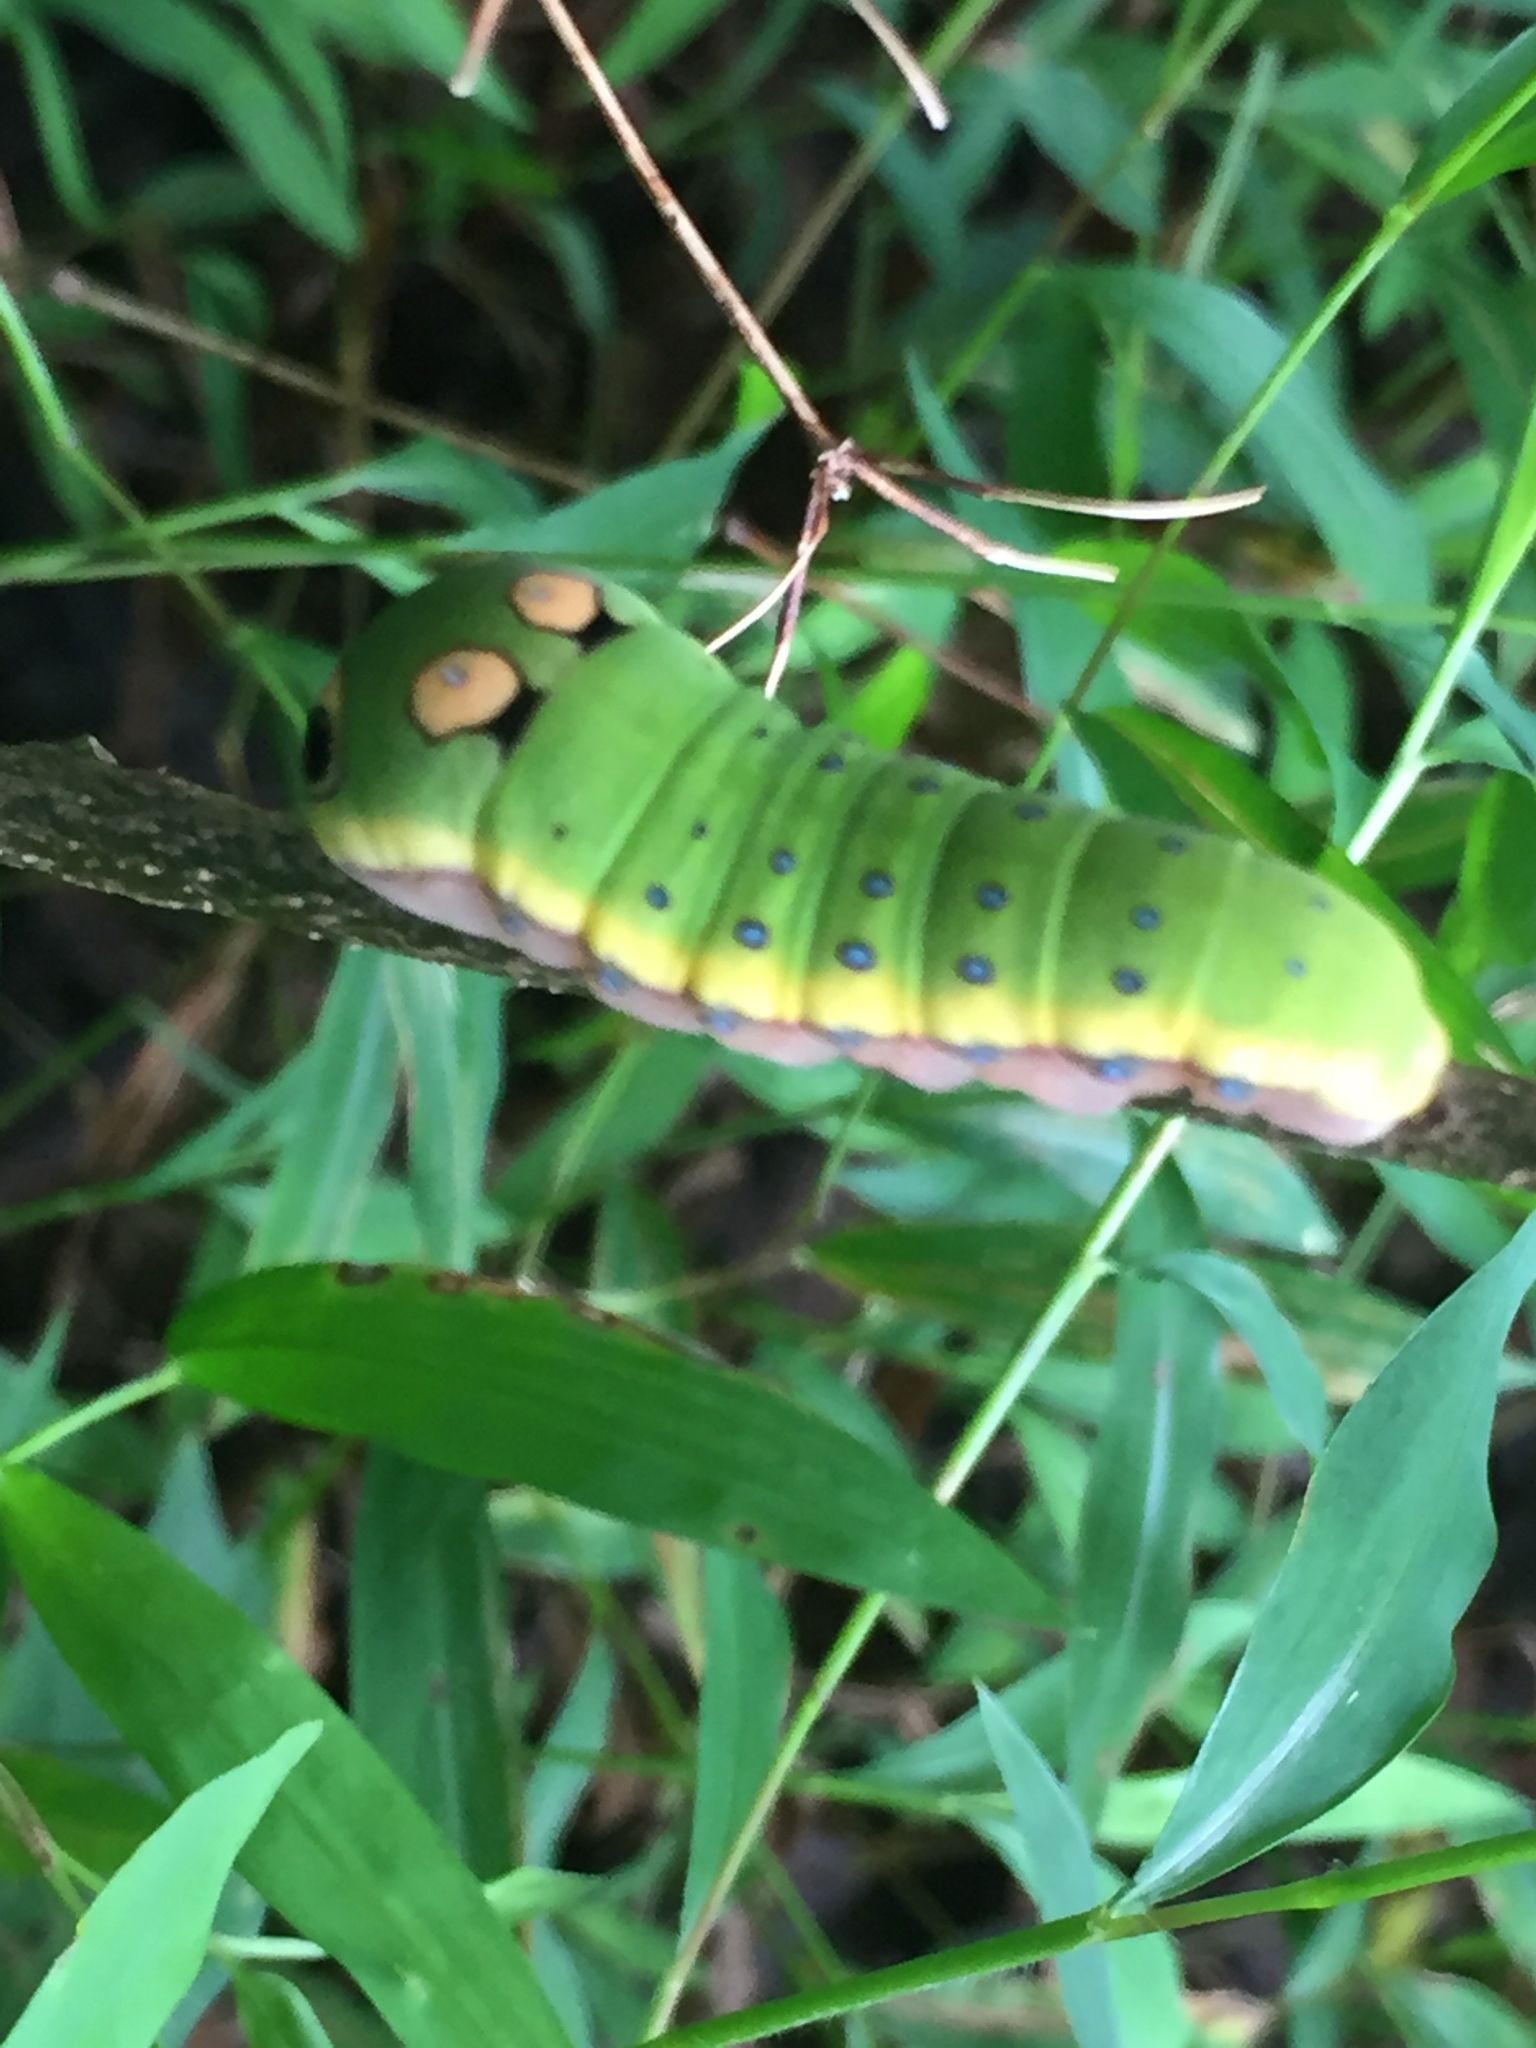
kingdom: Animalia
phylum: Arthropoda
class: Insecta
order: Lepidoptera
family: Papilionidae
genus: Papilio
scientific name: Papilio troilus
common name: Spicebush swallowtail
